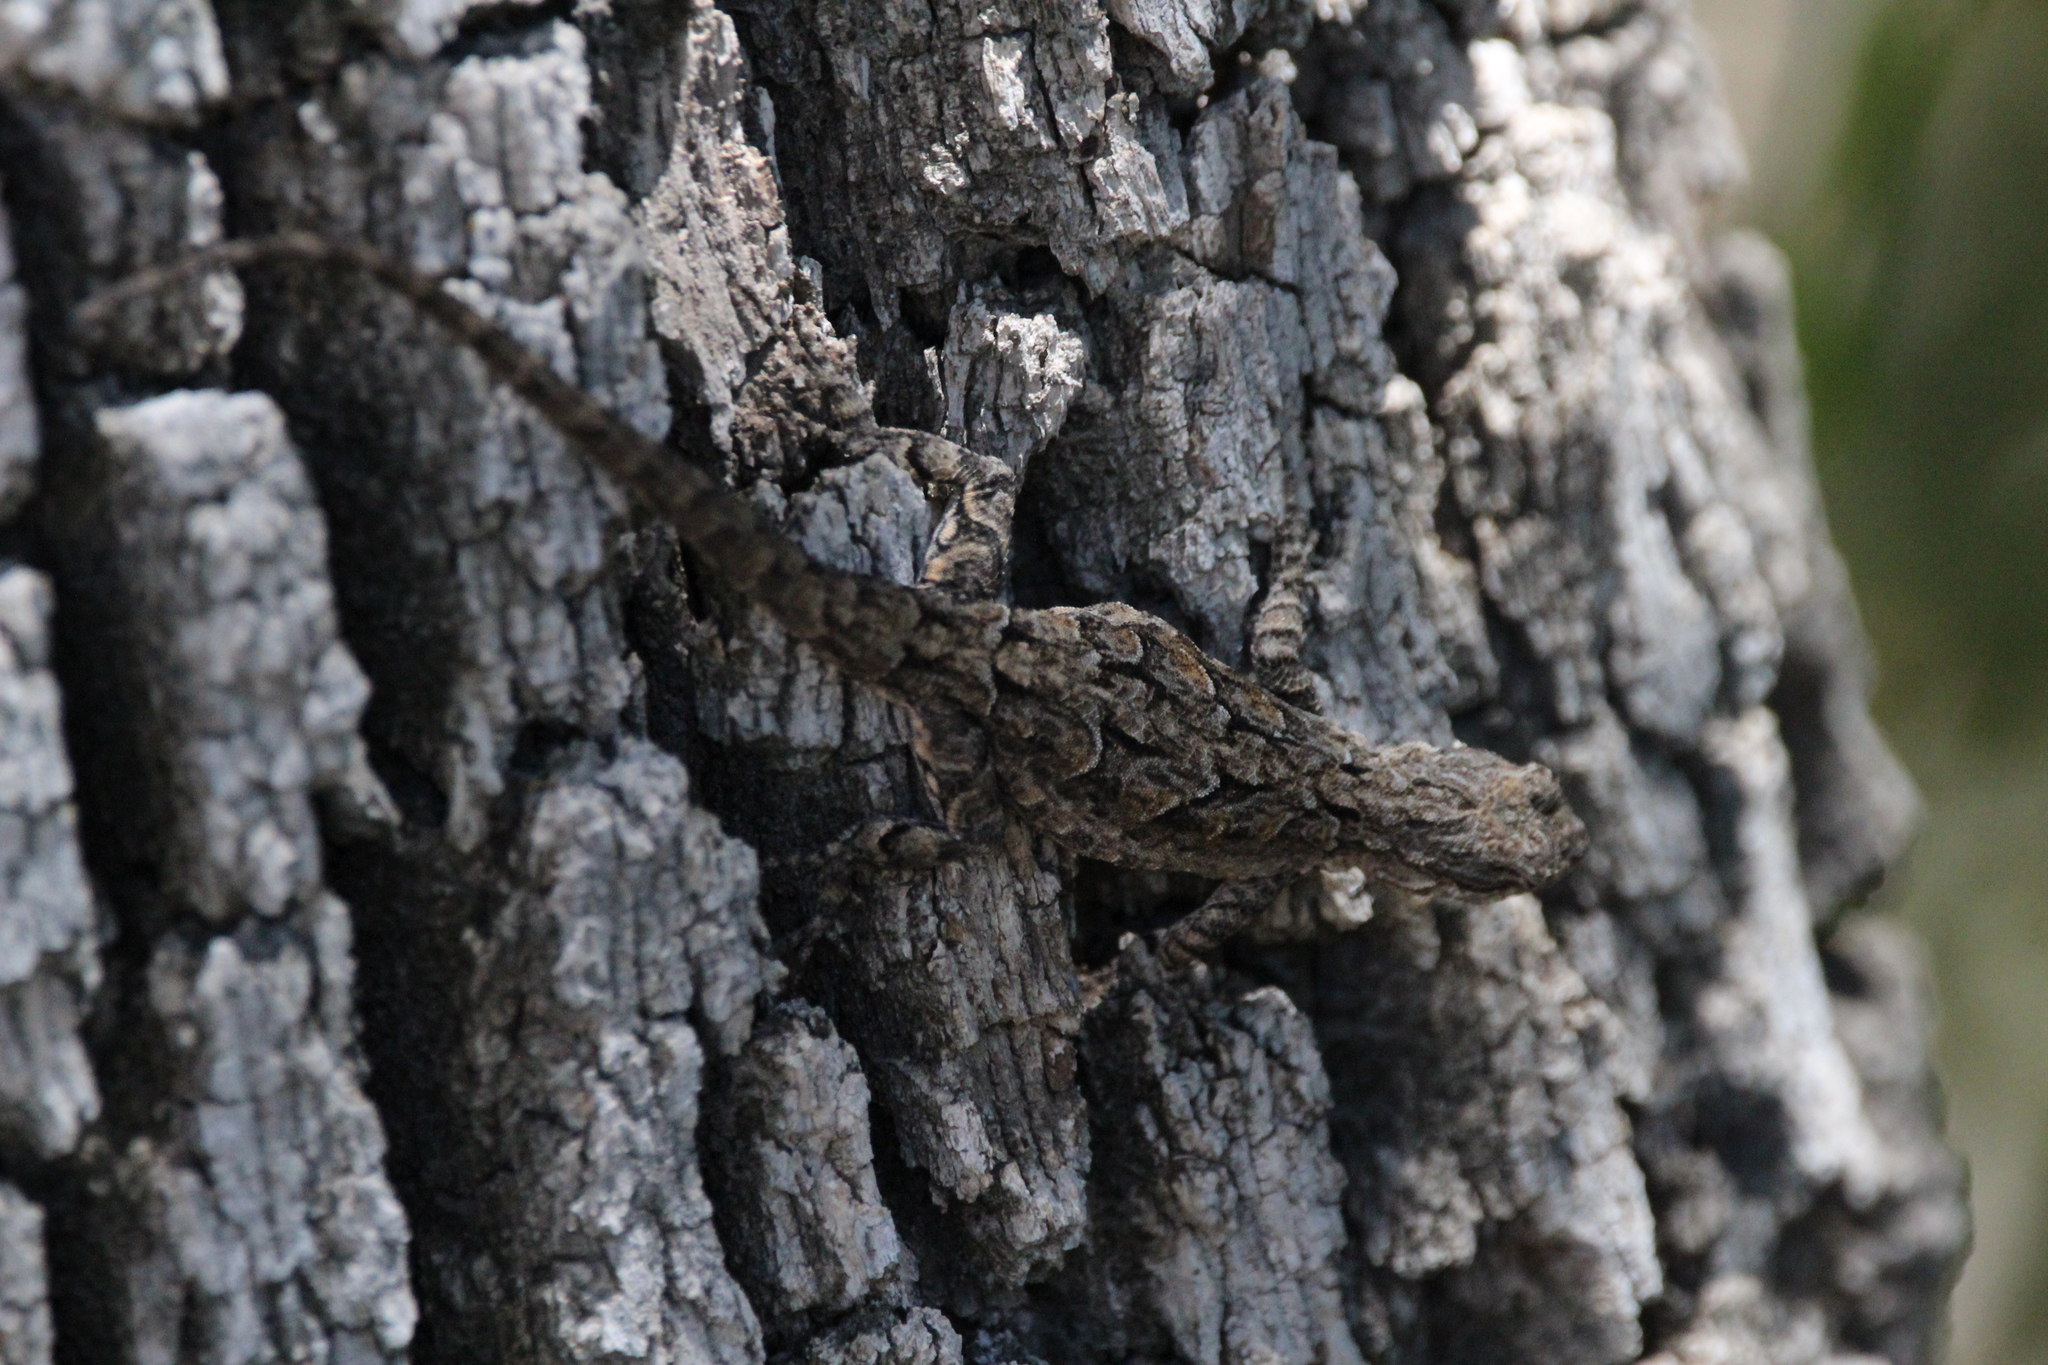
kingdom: Animalia
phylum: Chordata
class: Squamata
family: Phrynosomatidae
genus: Urosaurus
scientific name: Urosaurus ornatus
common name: Ornate tree lizard
